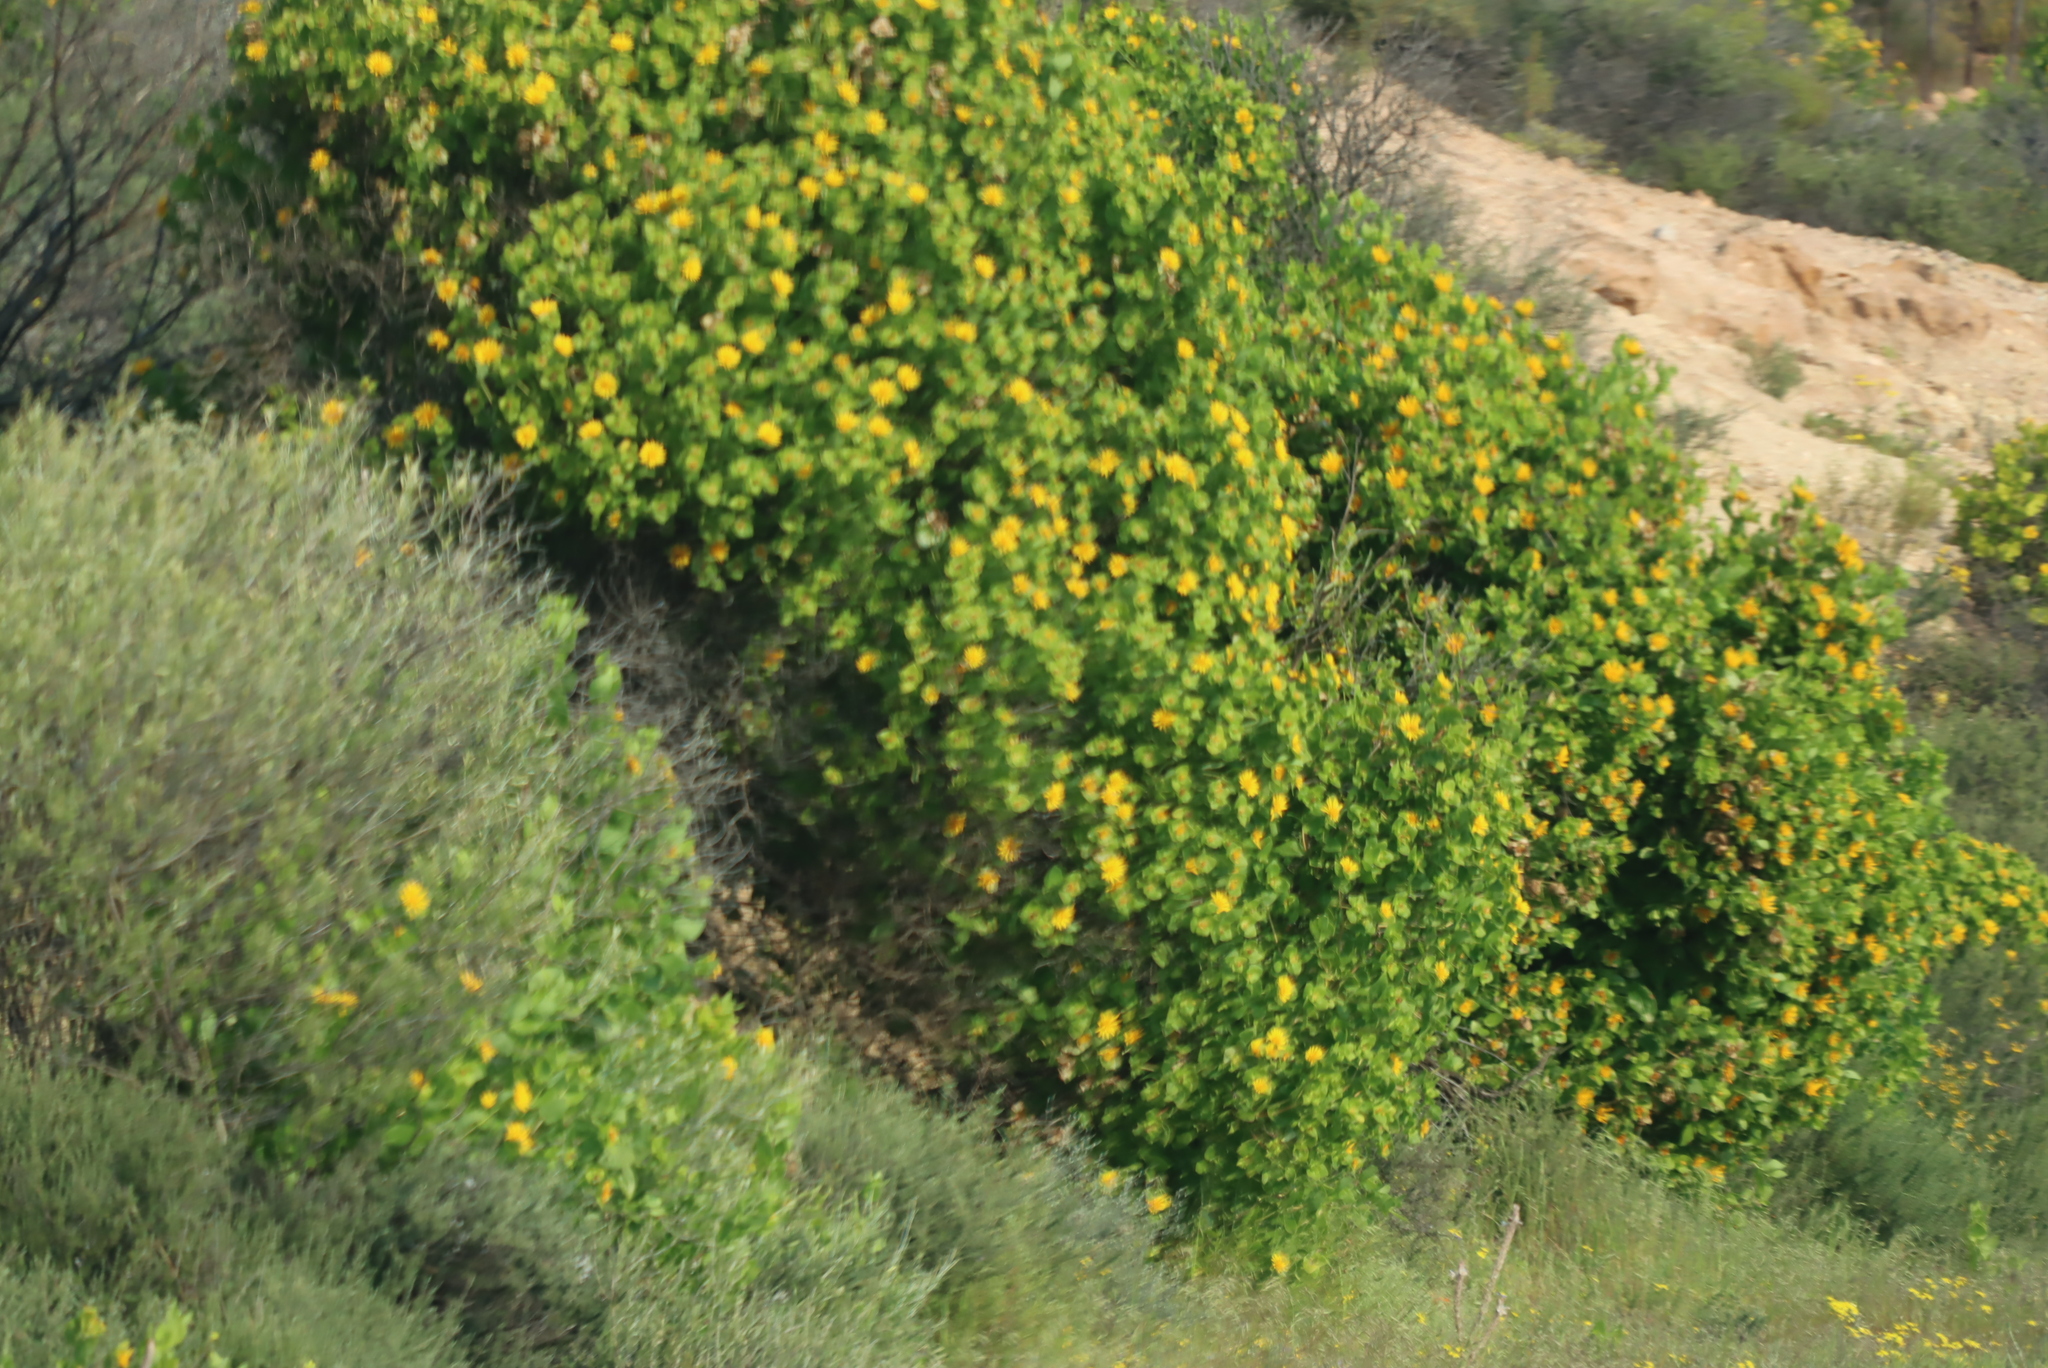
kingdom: Plantae
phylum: Tracheophyta
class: Magnoliopsida
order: Asterales
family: Asteraceae
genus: Didelta
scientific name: Didelta spinosa
